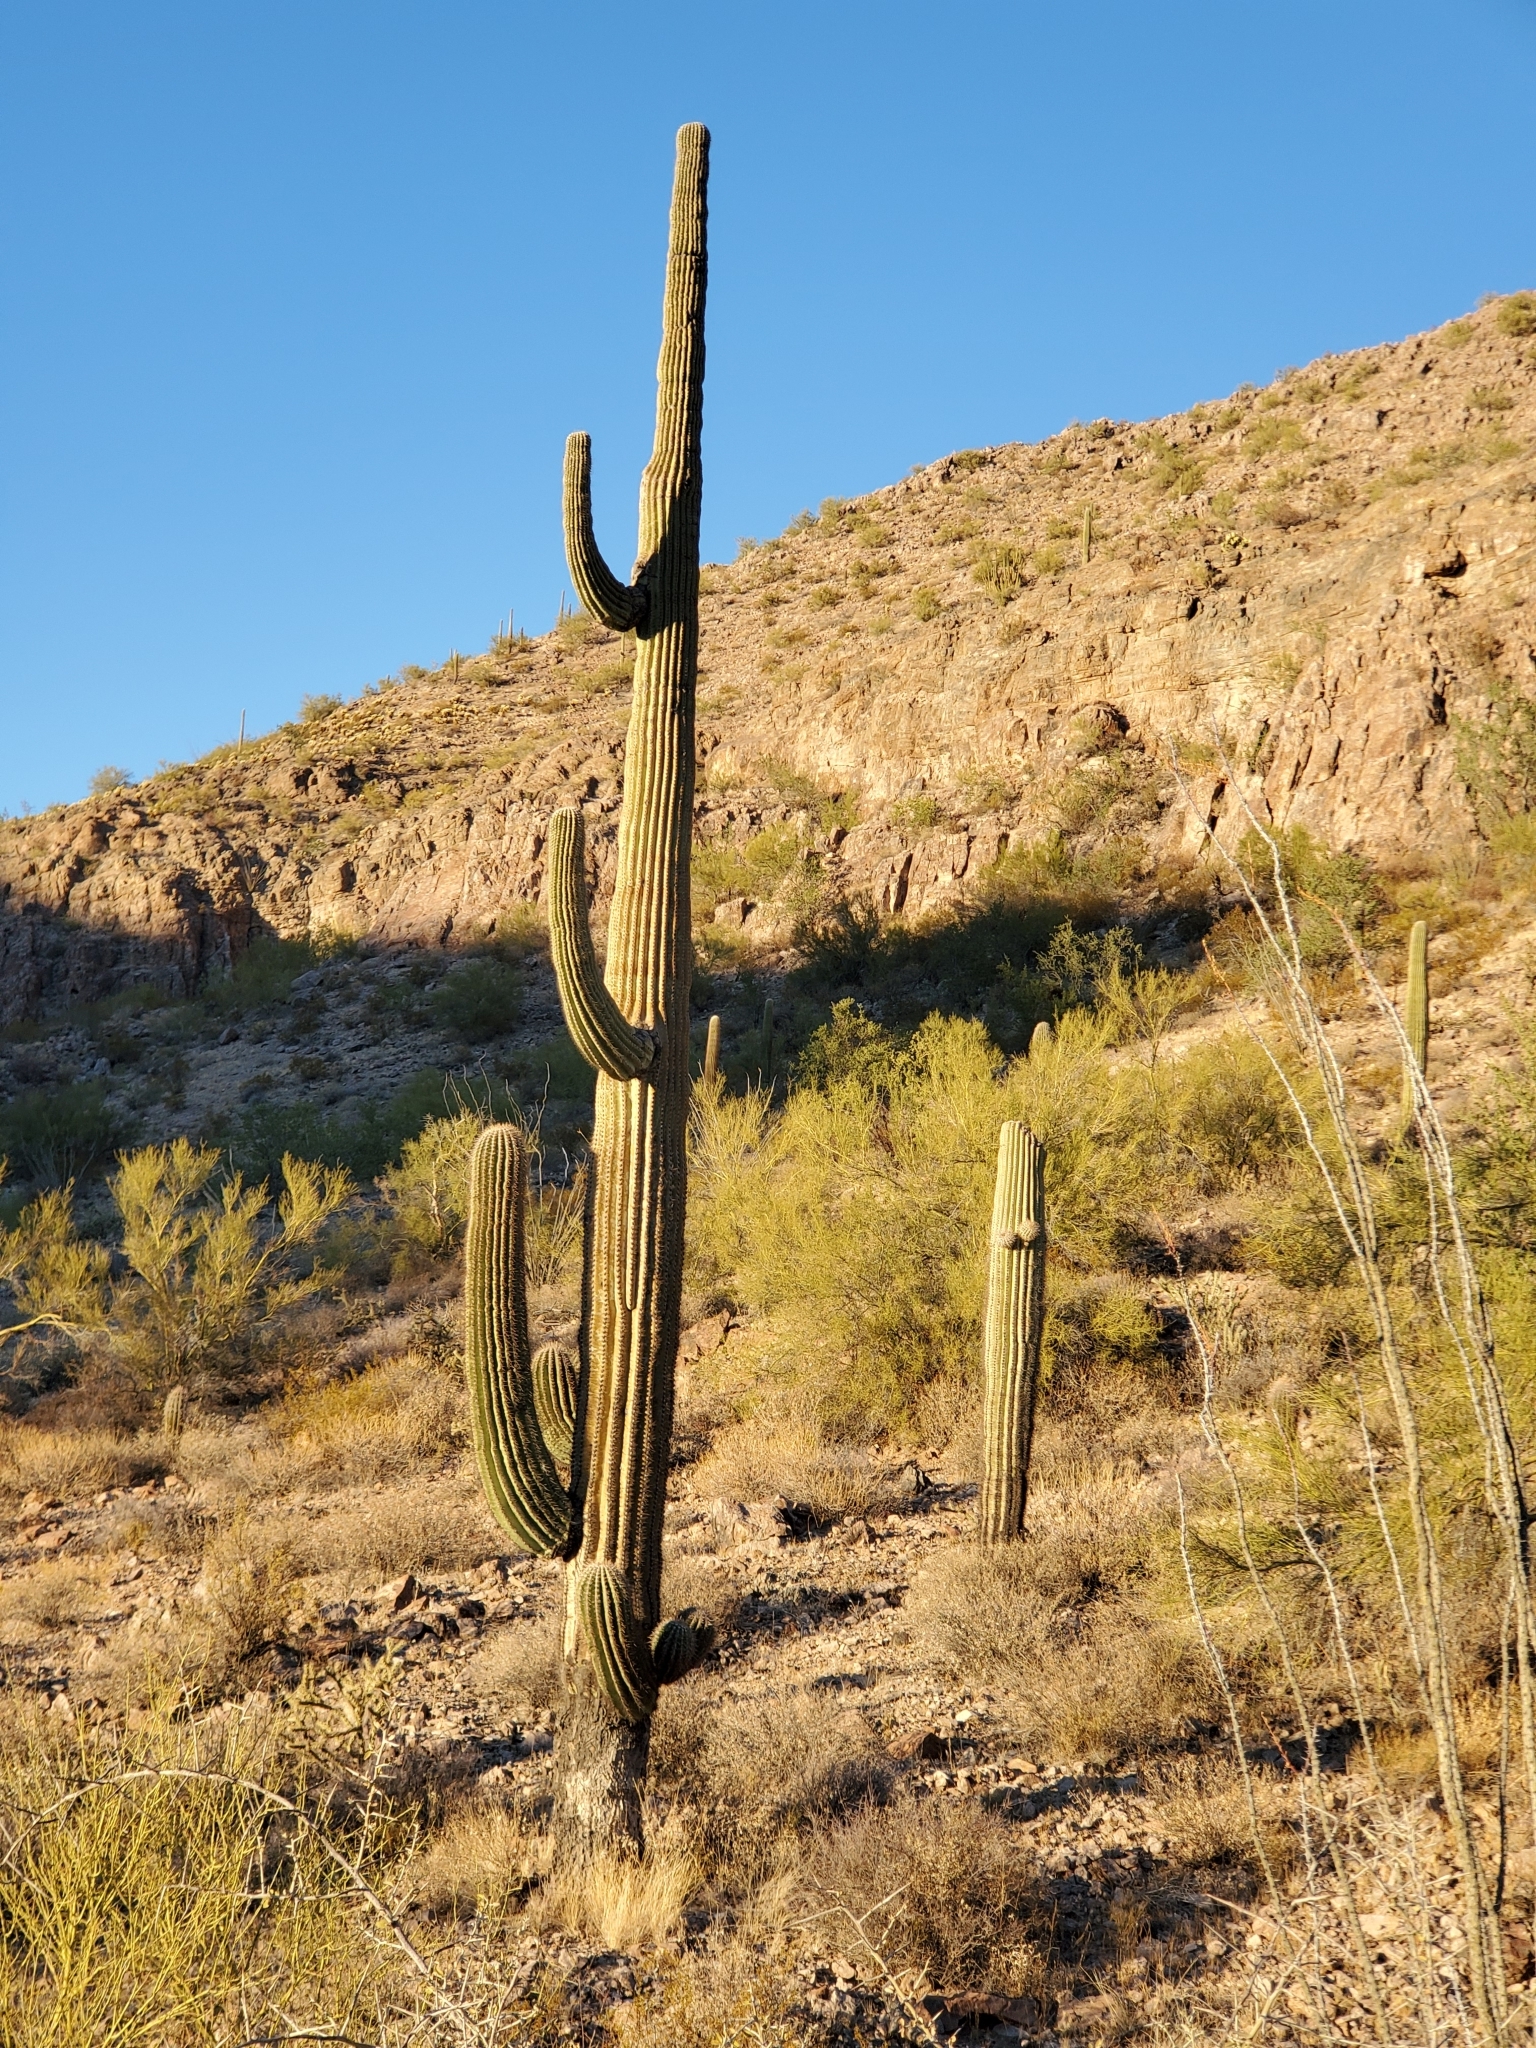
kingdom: Plantae
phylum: Tracheophyta
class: Magnoliopsida
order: Caryophyllales
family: Cactaceae
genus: Carnegiea
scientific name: Carnegiea gigantea
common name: Saguaro
